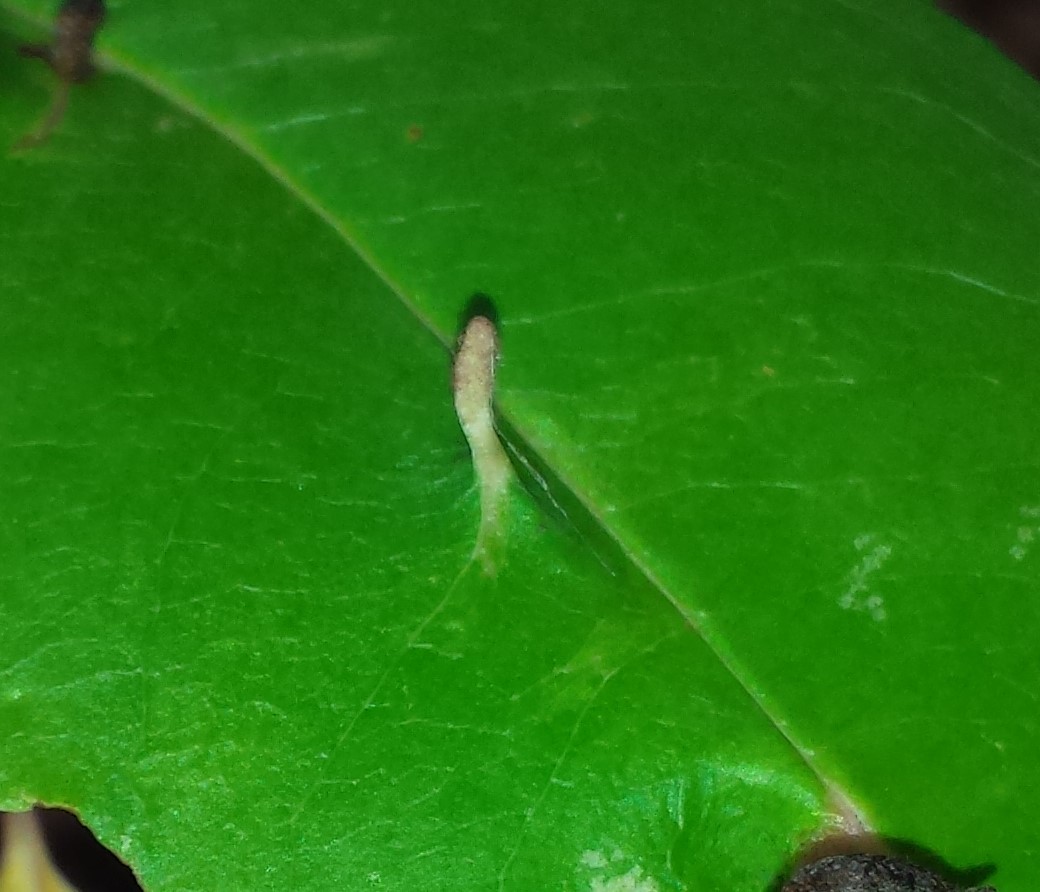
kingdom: Animalia
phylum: Arthropoda
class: Arachnida
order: Trombidiformes
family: Eriophyidae
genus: Eriophyes
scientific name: Eriophyes
